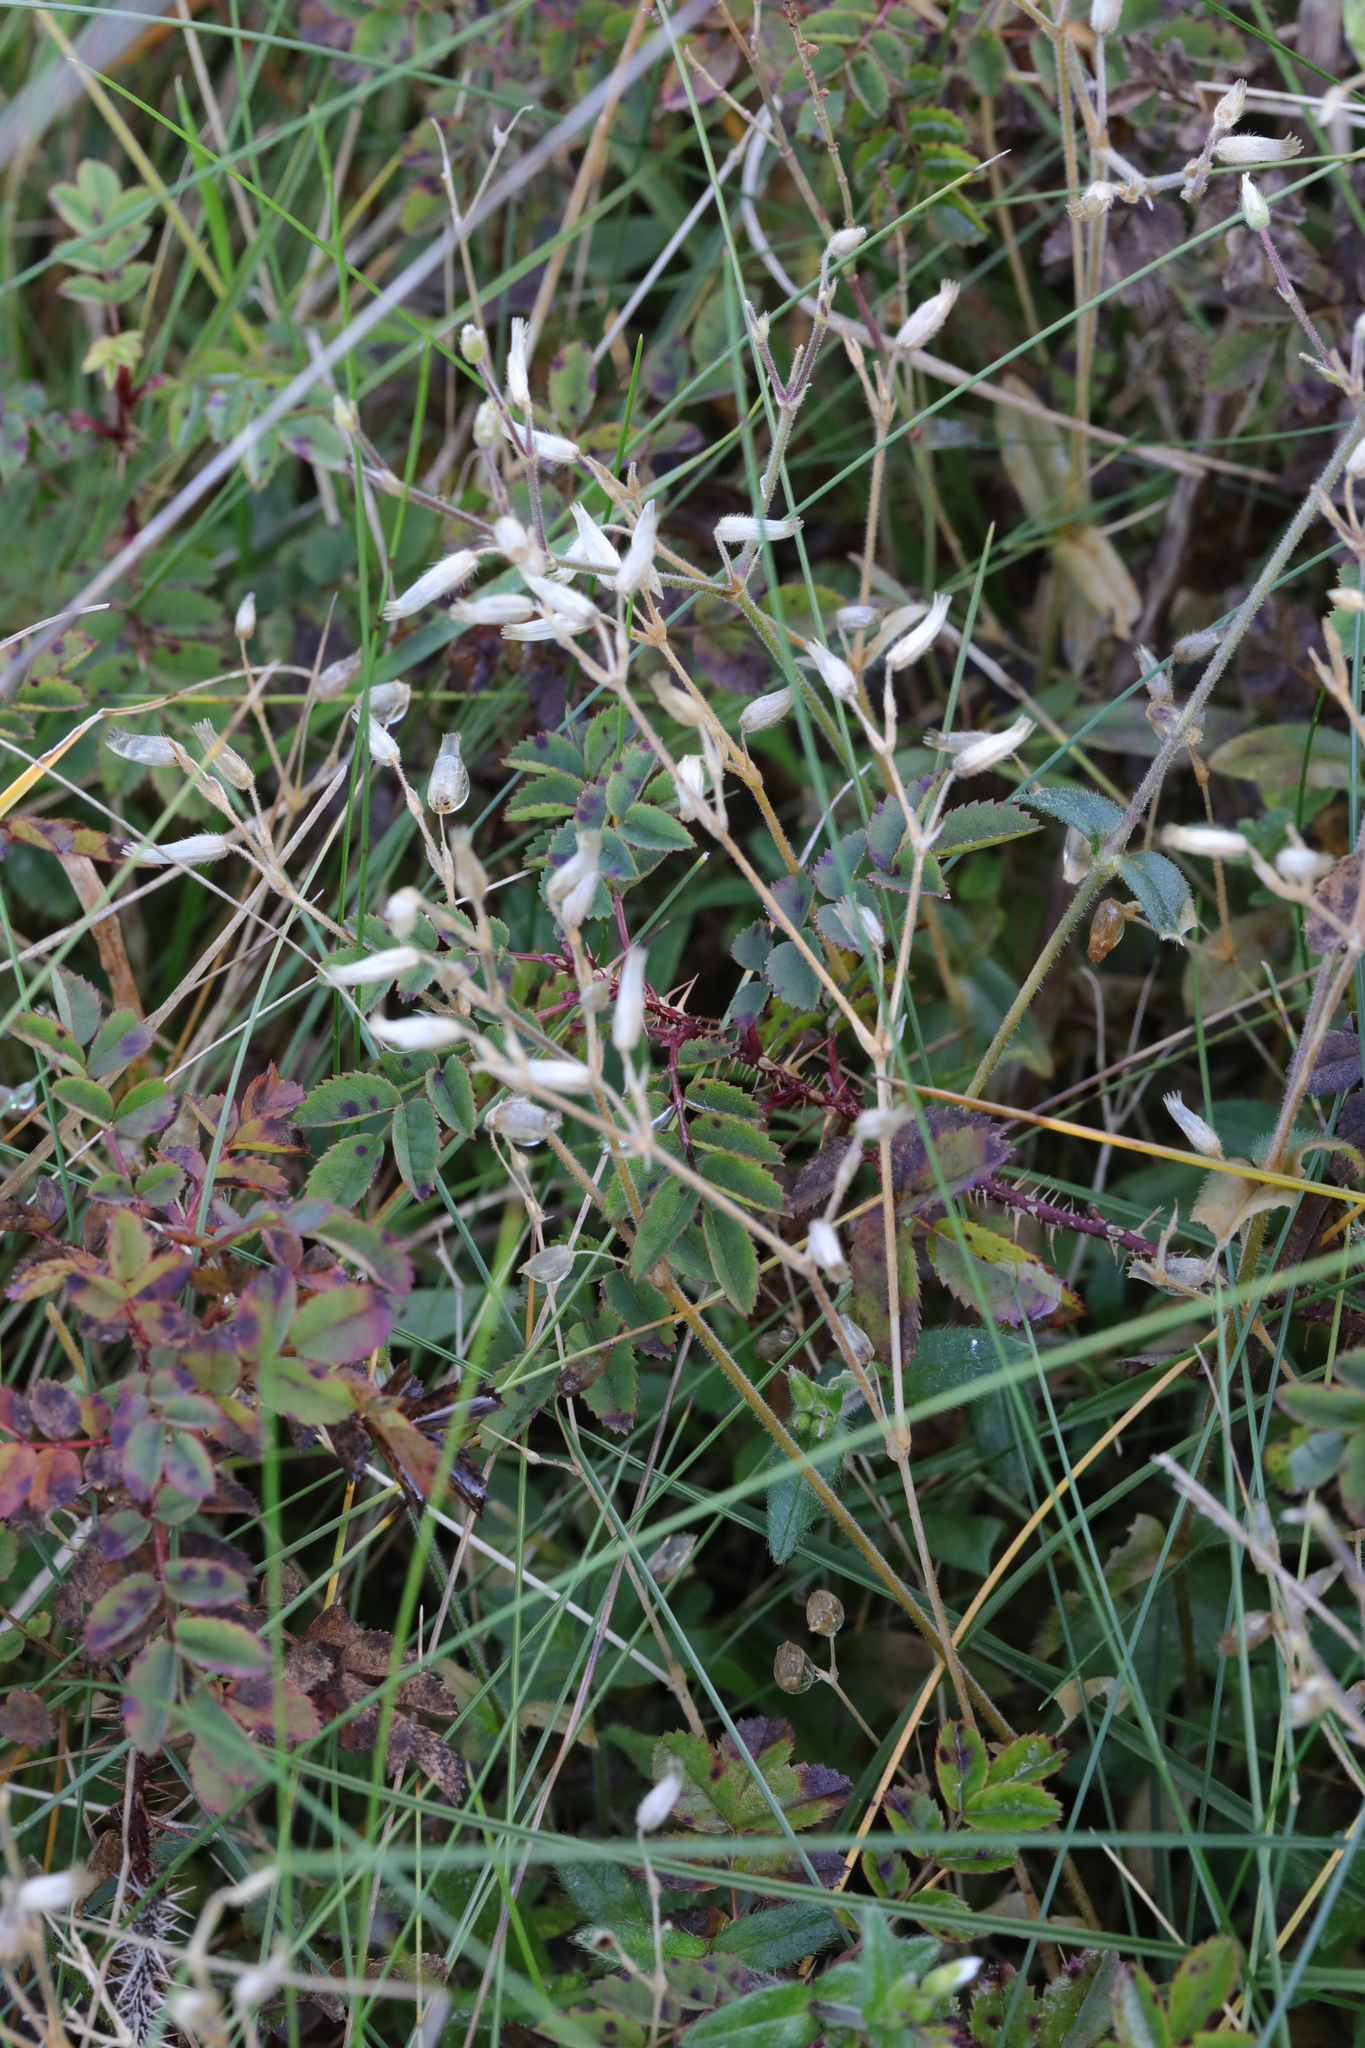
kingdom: Plantae
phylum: Tracheophyta
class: Magnoliopsida
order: Caryophyllales
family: Caryophyllaceae
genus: Cerastium
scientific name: Cerastium glomeratum
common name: Sticky chickweed
